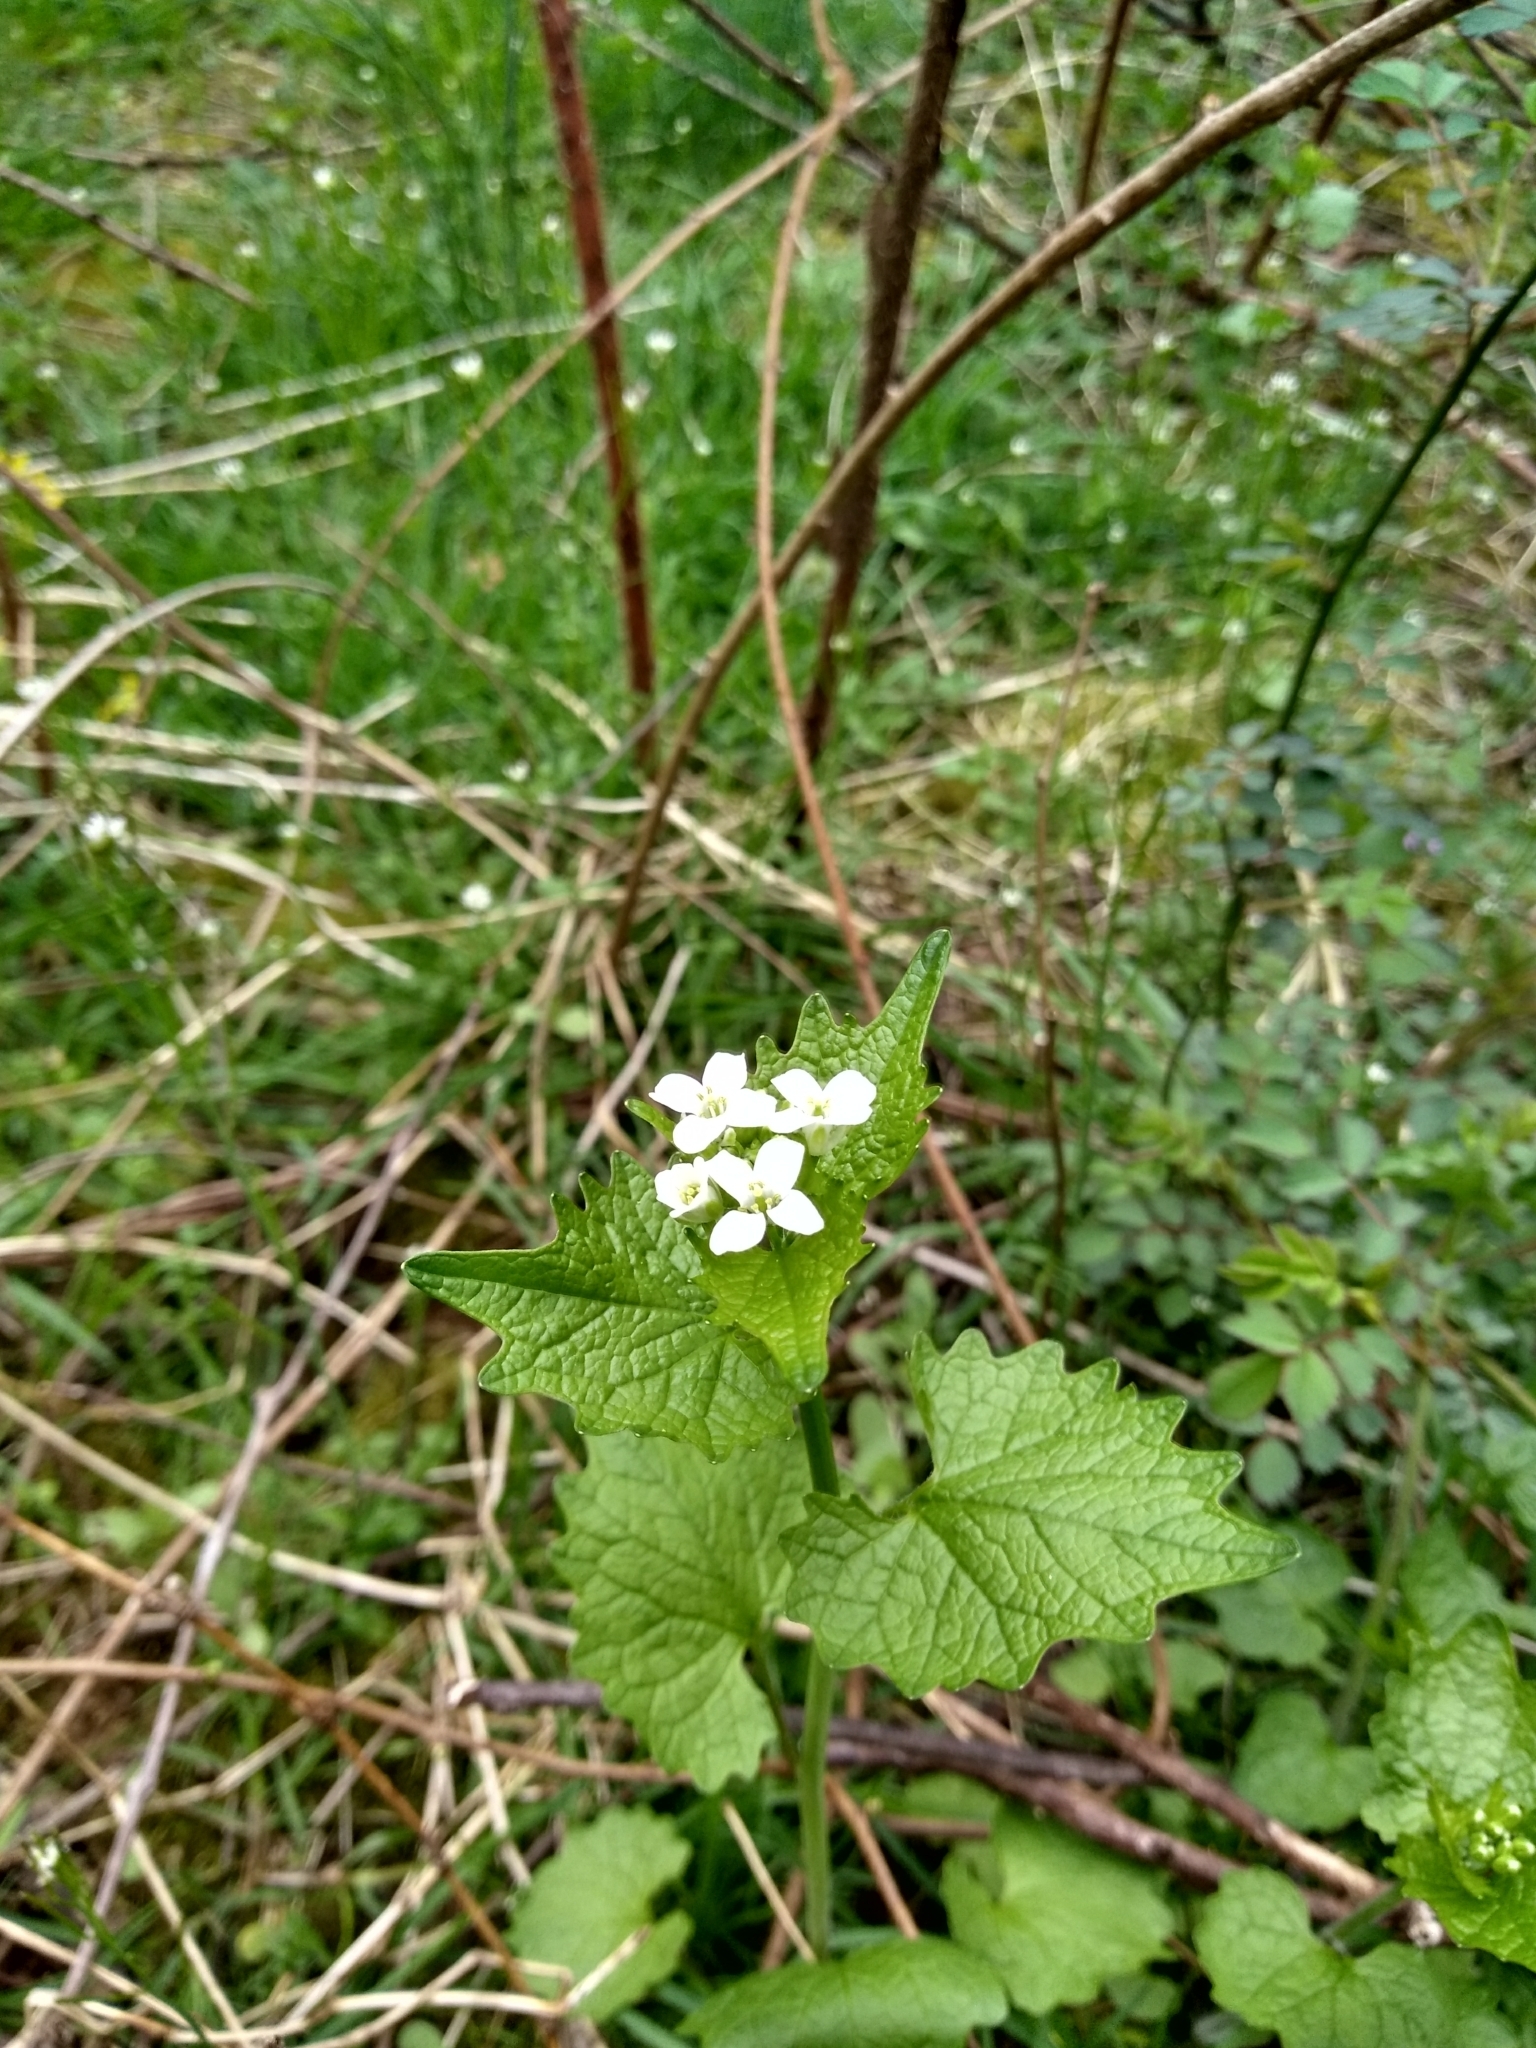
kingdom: Plantae
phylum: Tracheophyta
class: Magnoliopsida
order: Brassicales
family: Brassicaceae
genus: Alliaria
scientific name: Alliaria petiolata
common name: Garlic mustard
